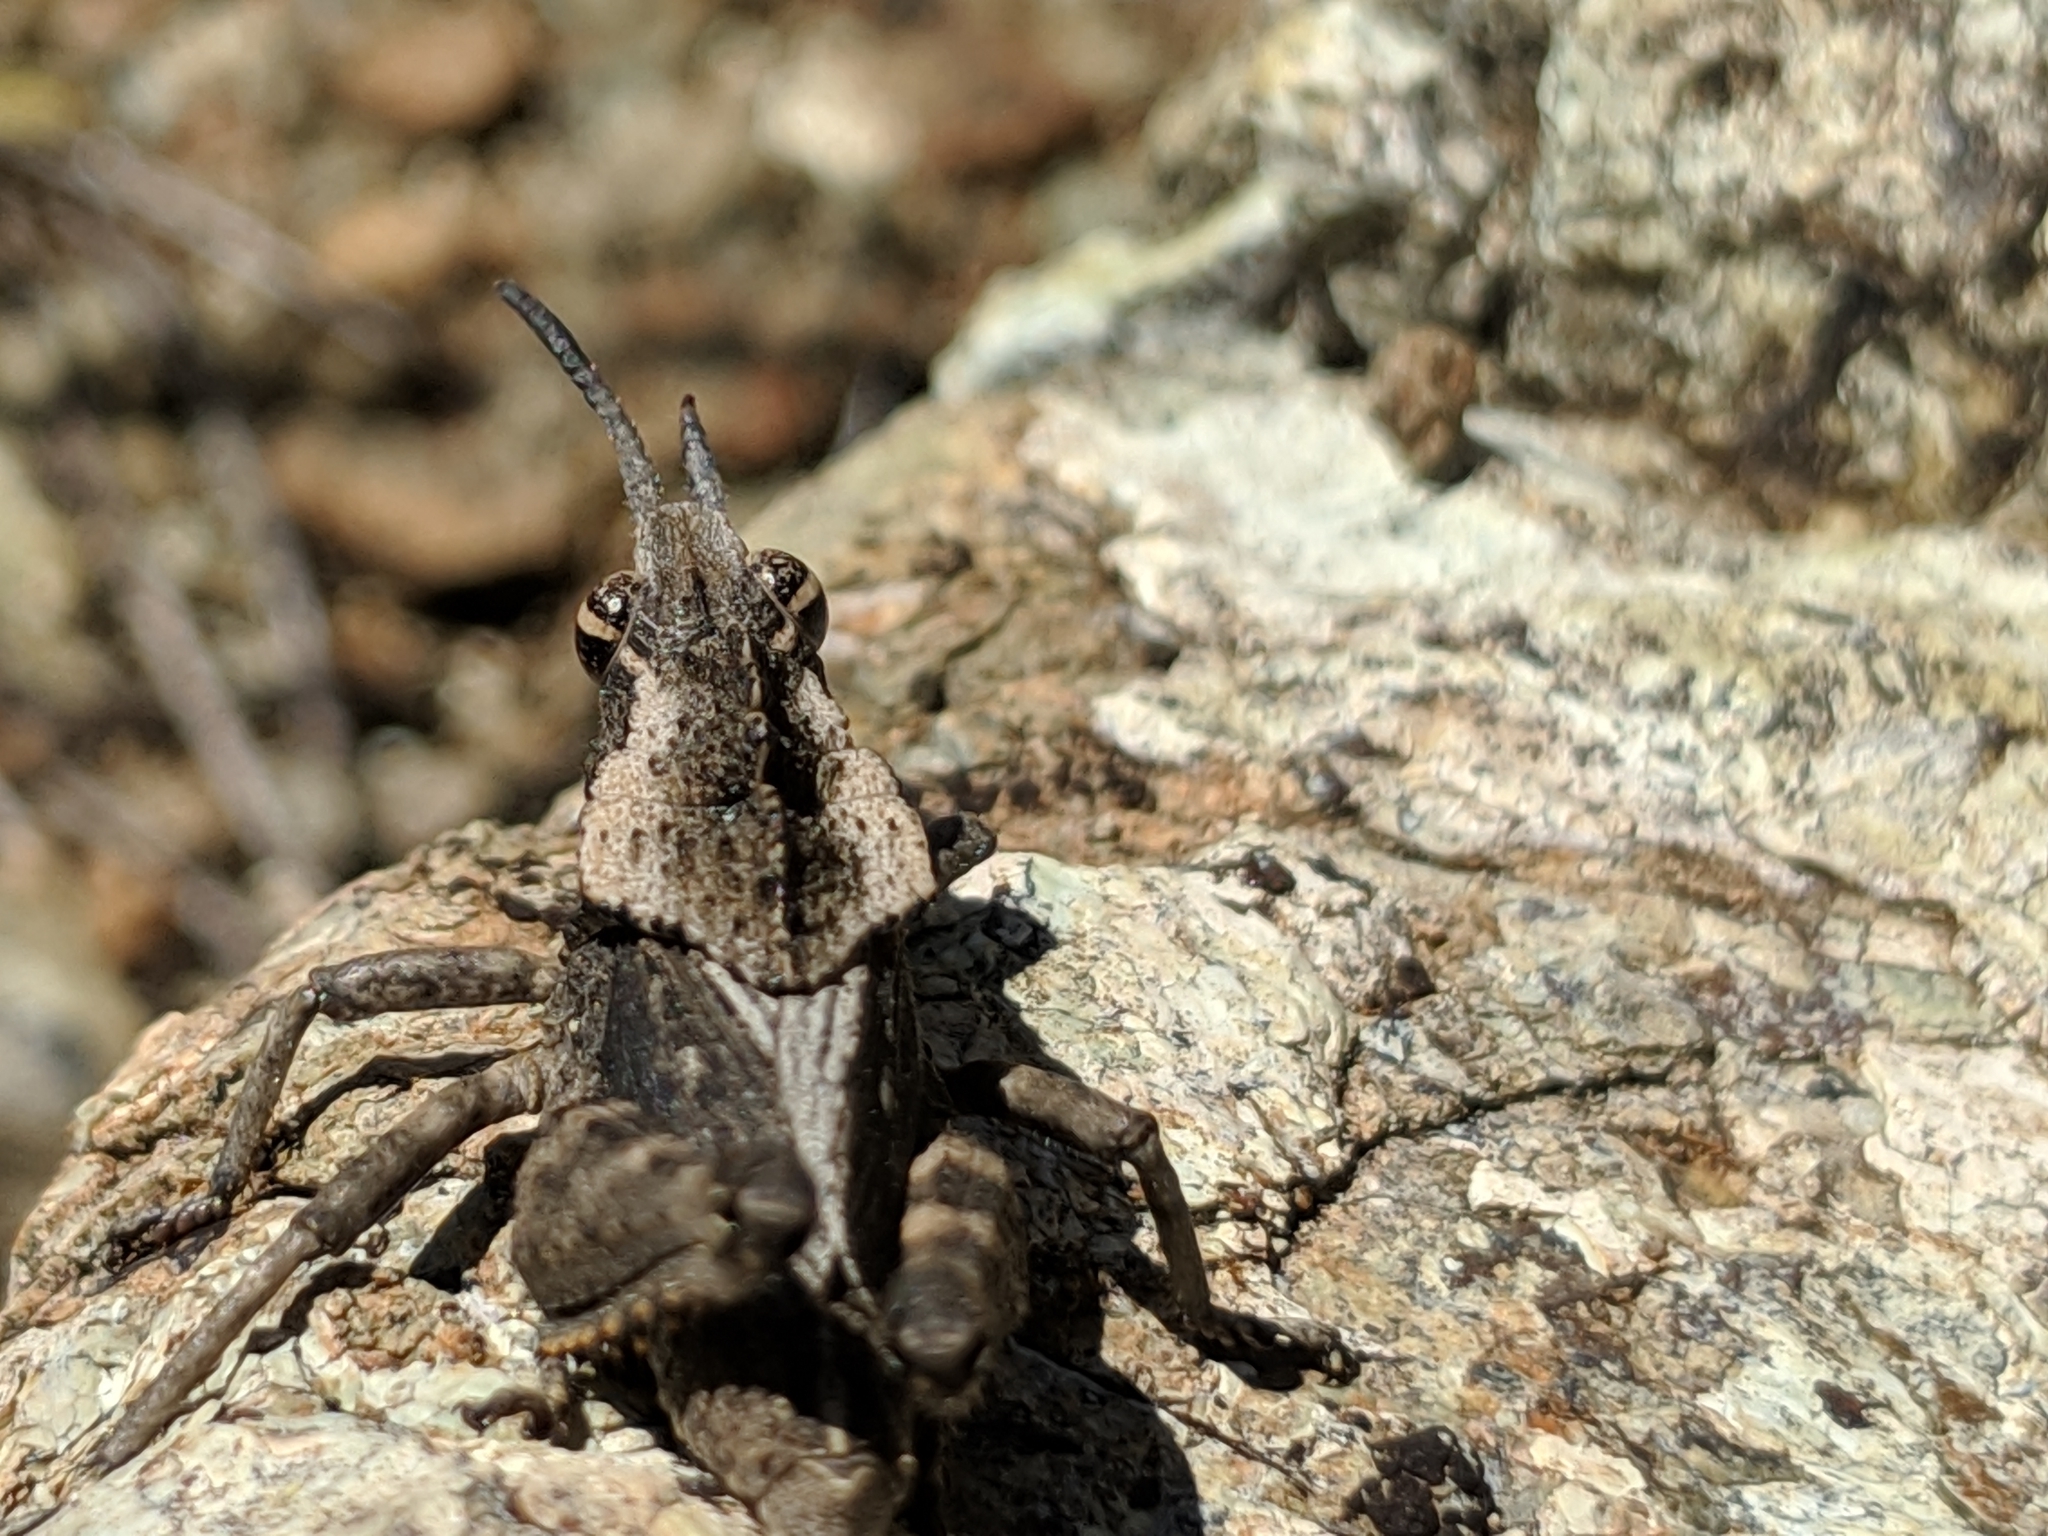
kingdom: Animalia
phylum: Arthropoda
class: Insecta
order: Orthoptera
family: Romaleidae
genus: Dracotettix
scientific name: Dracotettix monstrosus
